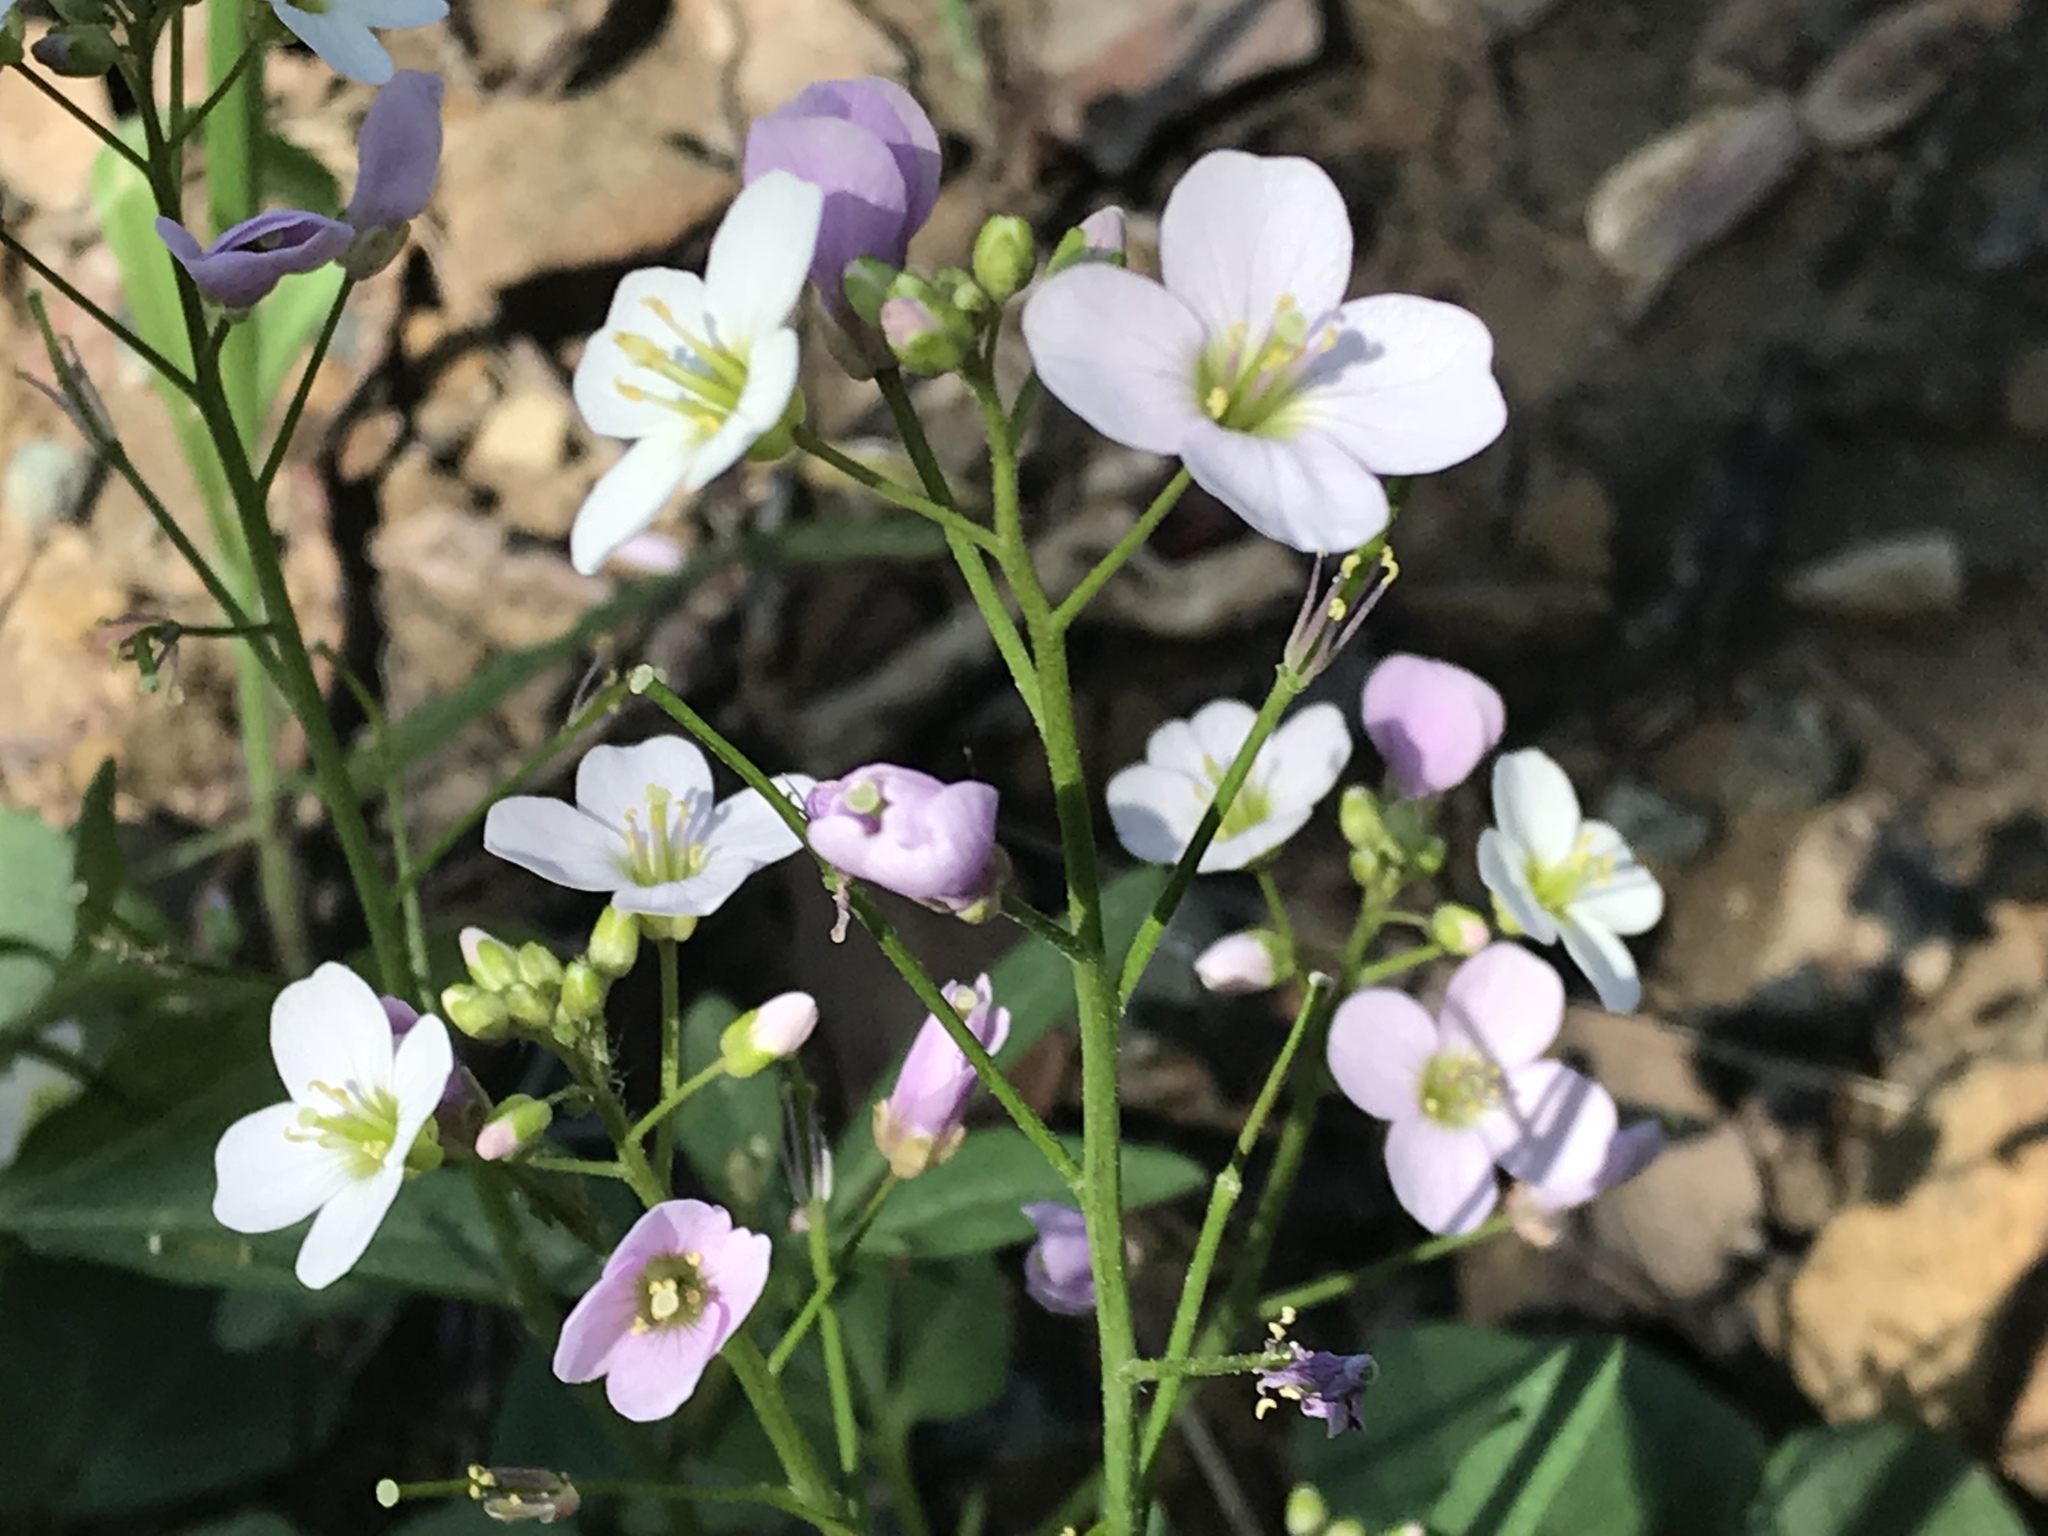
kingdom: Plantae
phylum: Tracheophyta
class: Magnoliopsida
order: Brassicales
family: Brassicaceae
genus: Cardamine
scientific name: Cardamine californica
